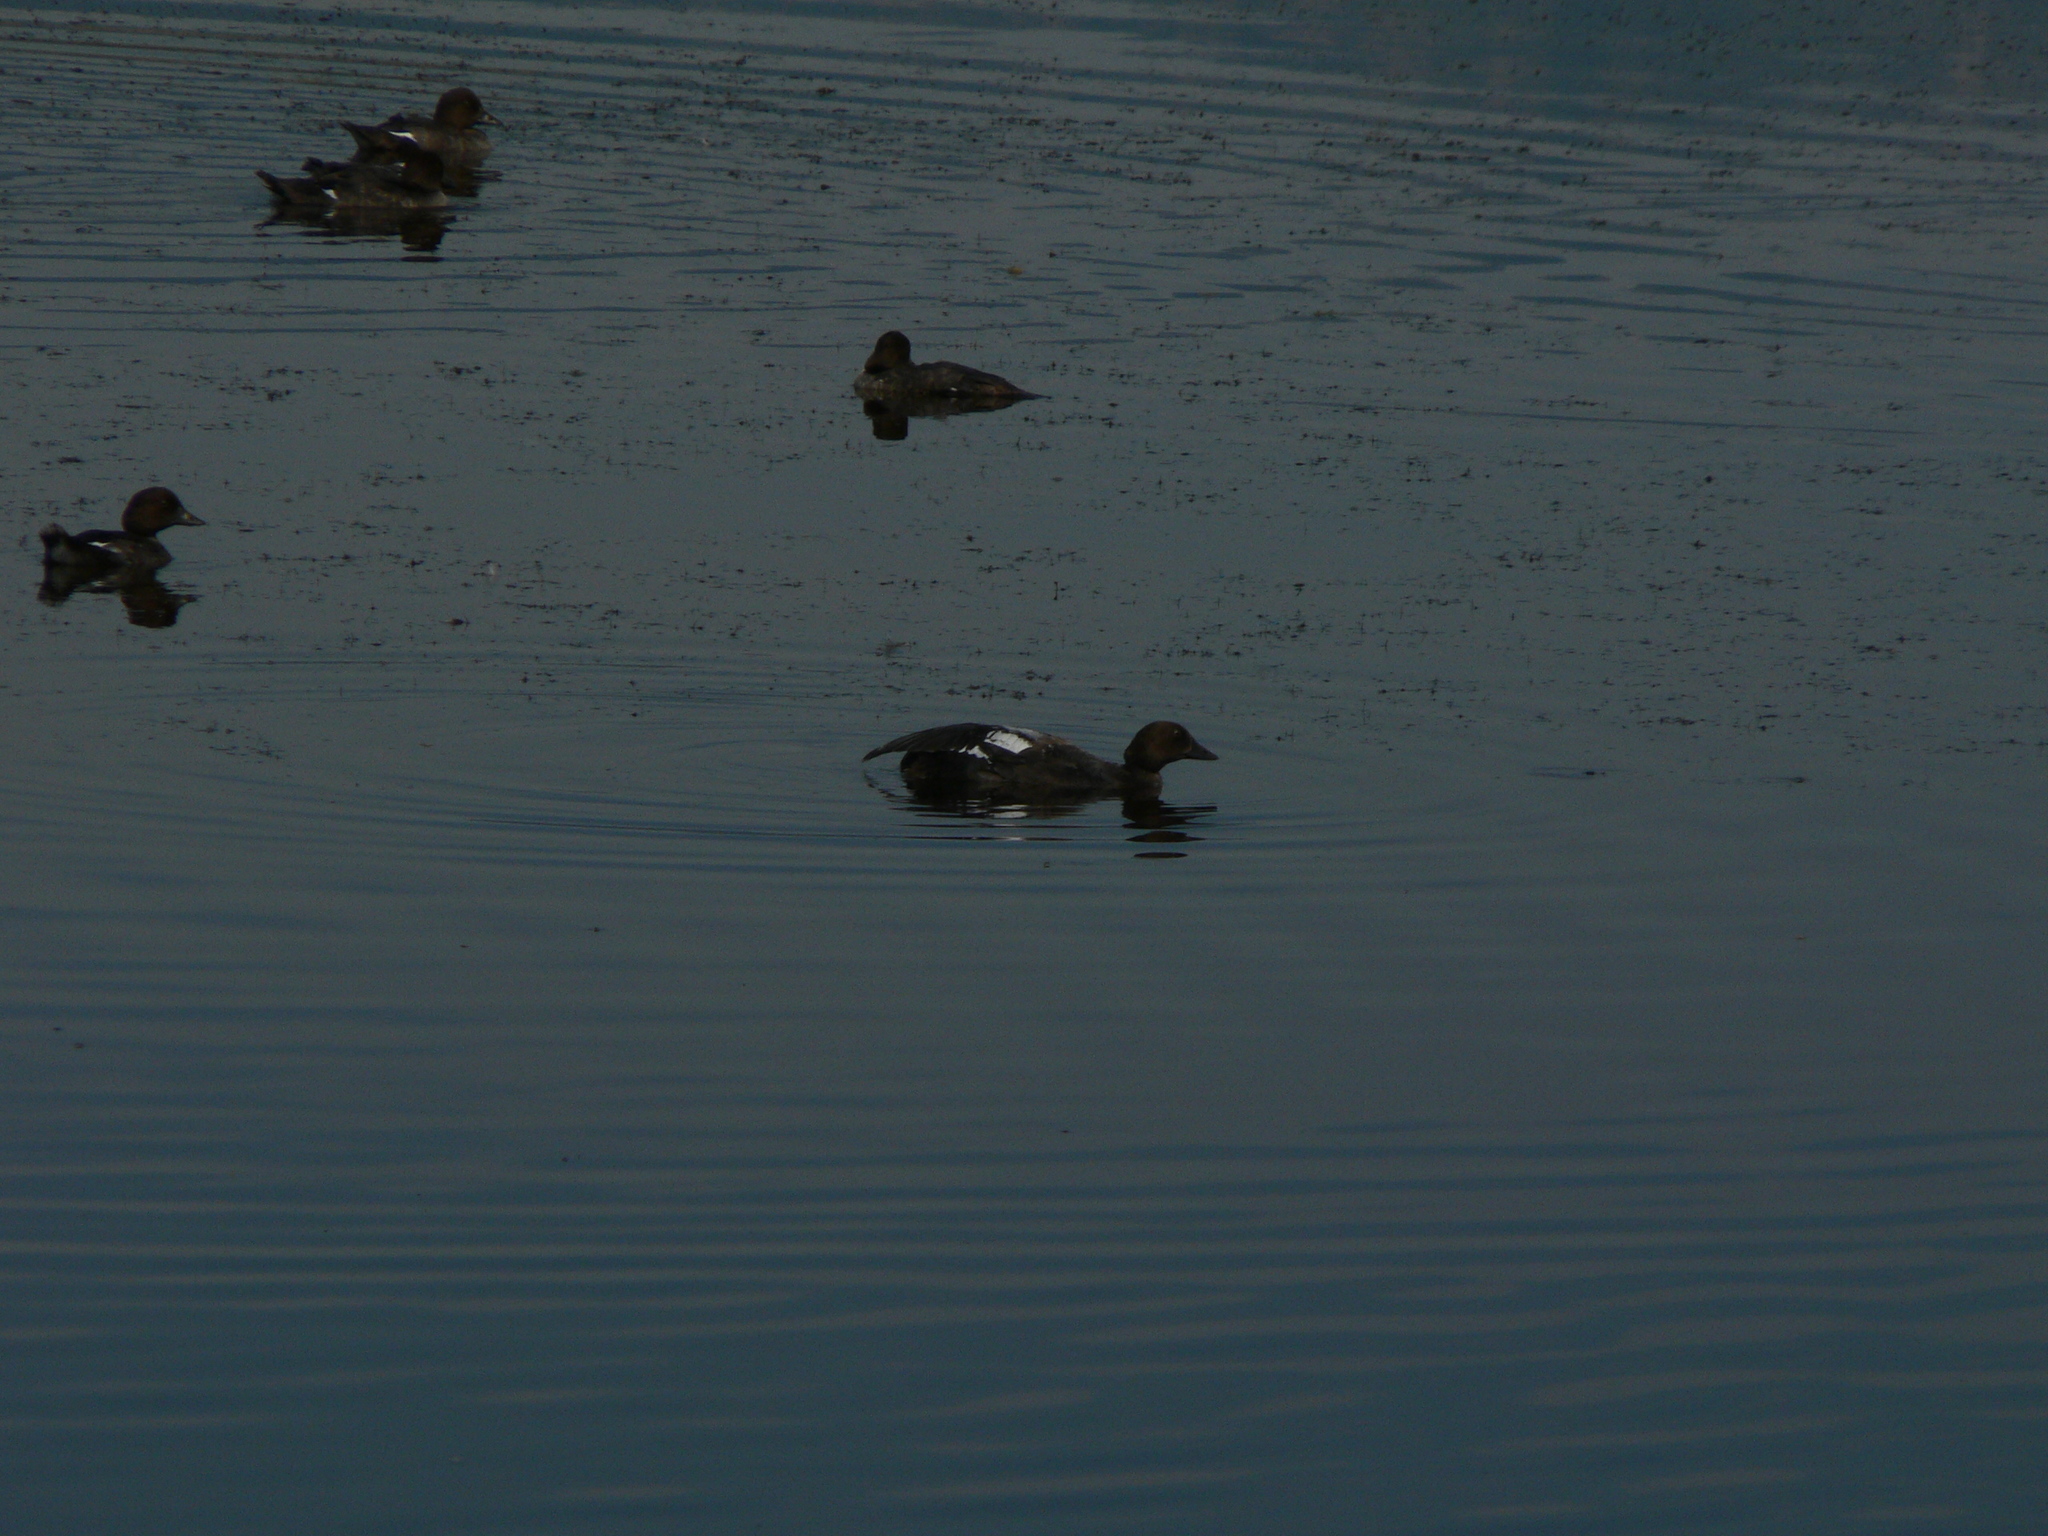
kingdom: Animalia
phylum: Chordata
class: Aves
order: Anseriformes
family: Anatidae
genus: Bucephala
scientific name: Bucephala clangula
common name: Common goldeneye
